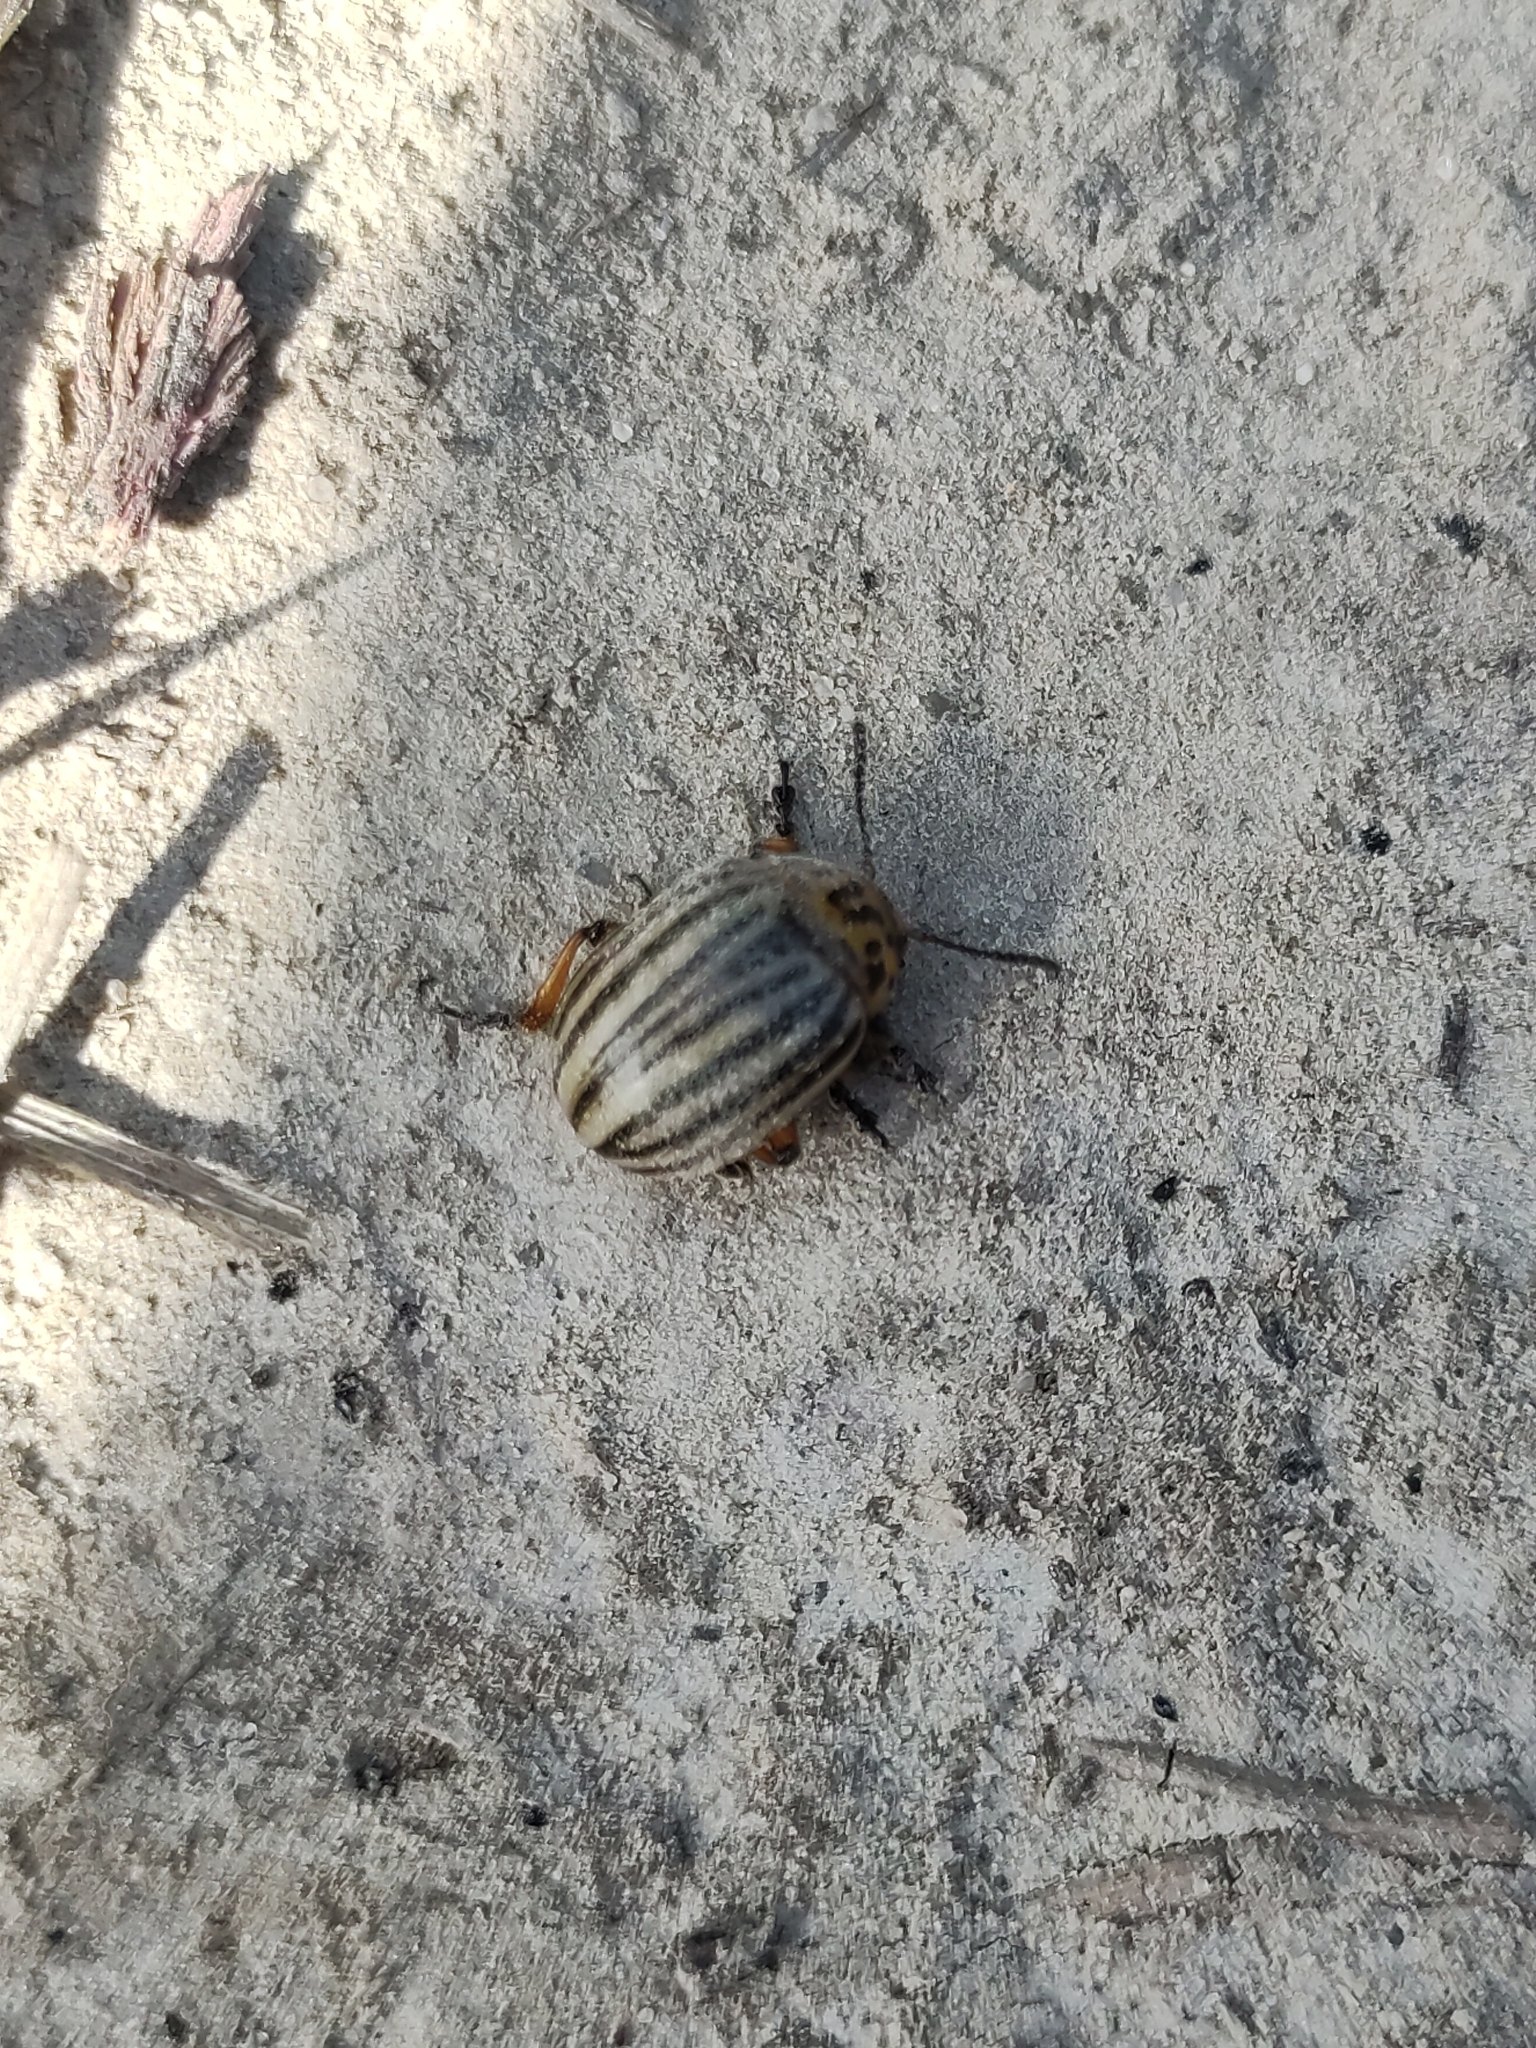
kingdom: Animalia
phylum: Arthropoda
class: Insecta
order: Coleoptera
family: Chrysomelidae
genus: Leptinotarsa
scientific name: Leptinotarsa decemlineata
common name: Colorado potato beetle
